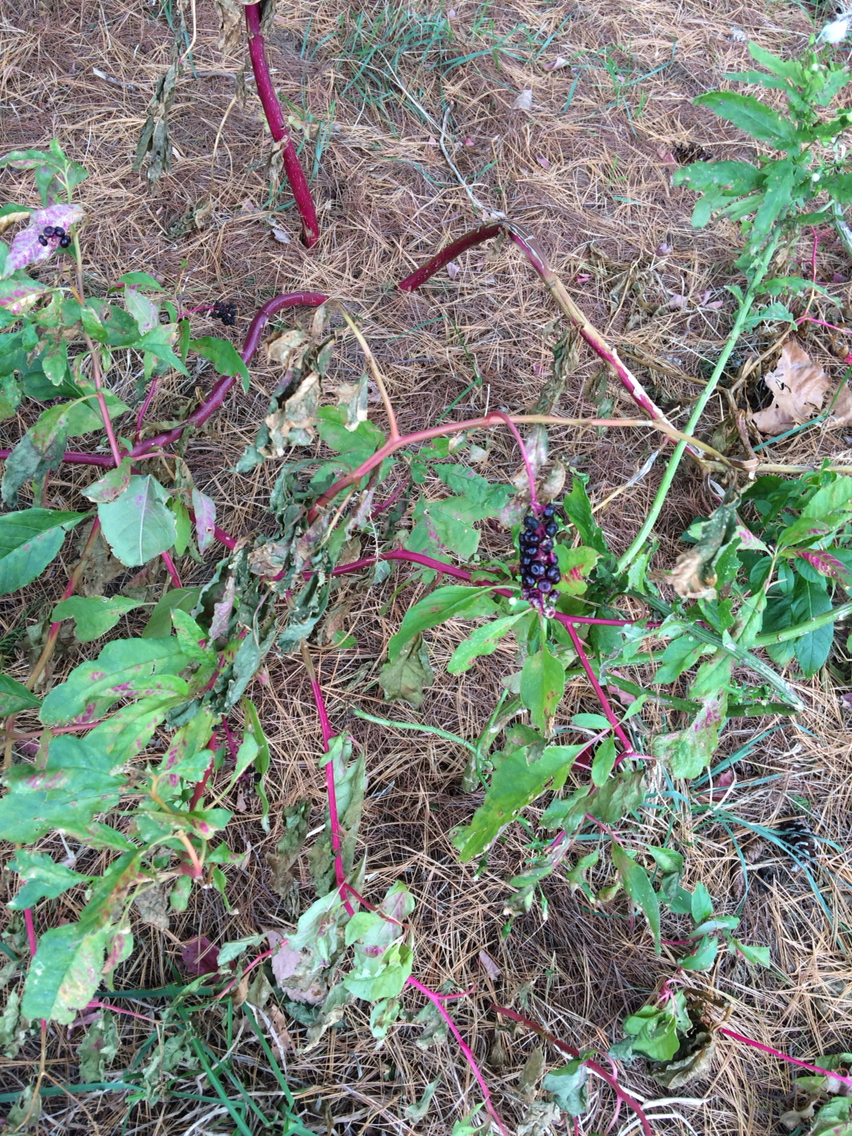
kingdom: Plantae
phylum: Tracheophyta
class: Magnoliopsida
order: Caryophyllales
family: Phytolaccaceae
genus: Phytolacca
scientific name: Phytolacca americana
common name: American pokeweed
